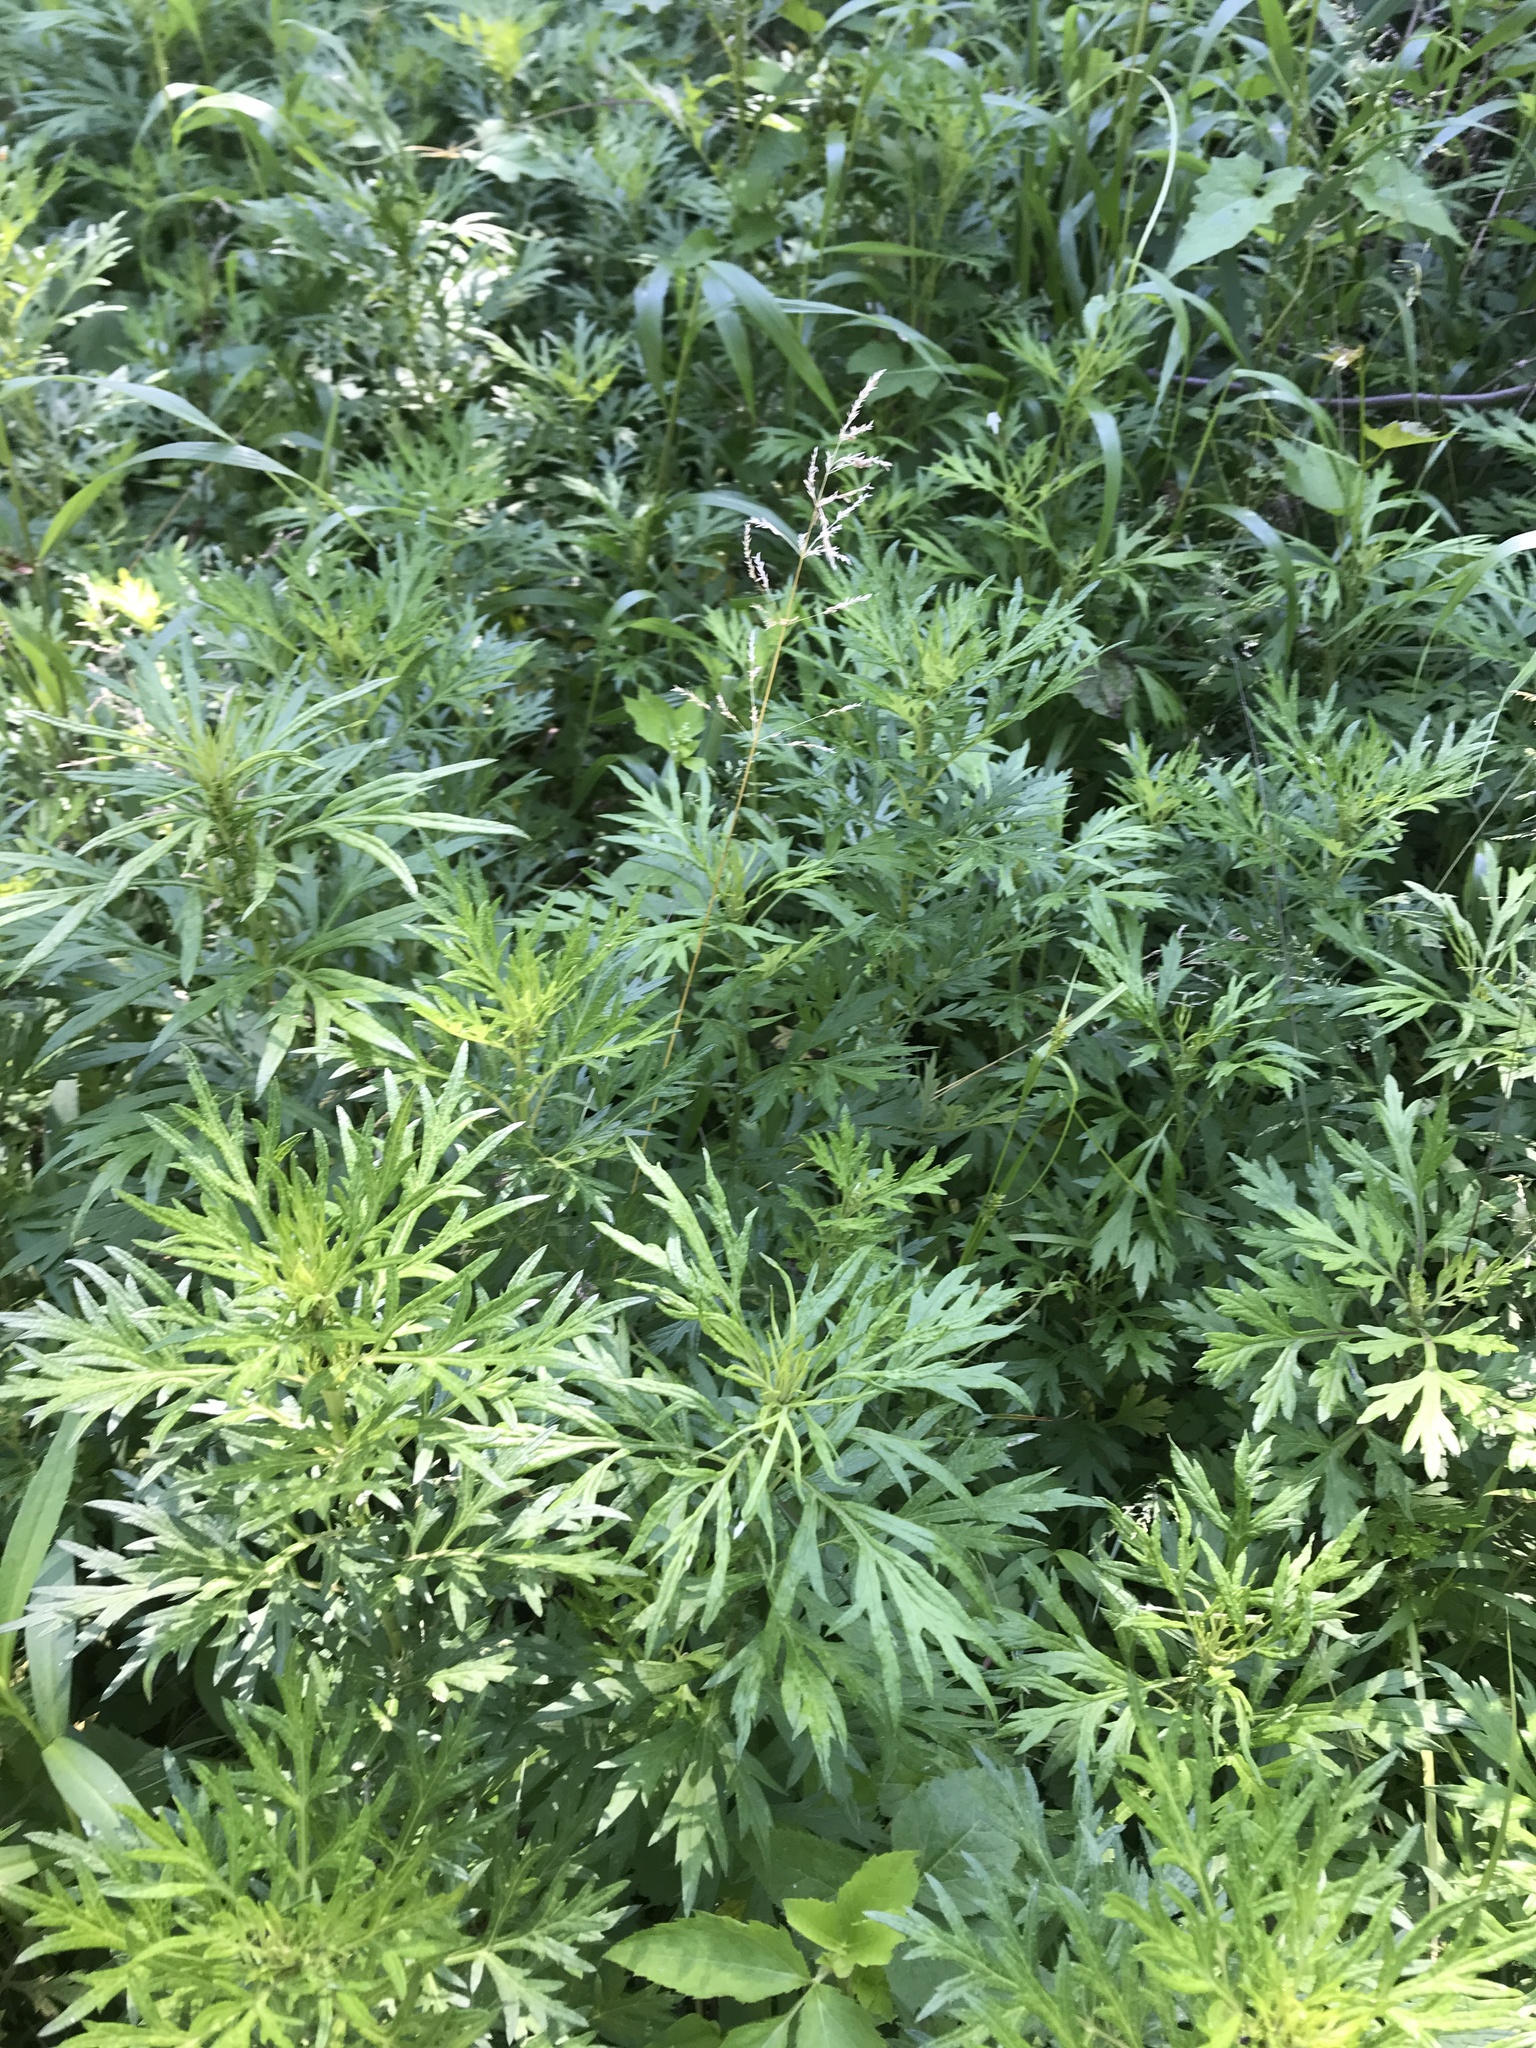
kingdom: Plantae
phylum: Tracheophyta
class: Magnoliopsida
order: Asterales
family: Asteraceae
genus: Artemisia
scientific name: Artemisia vulgaris
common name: Mugwort
